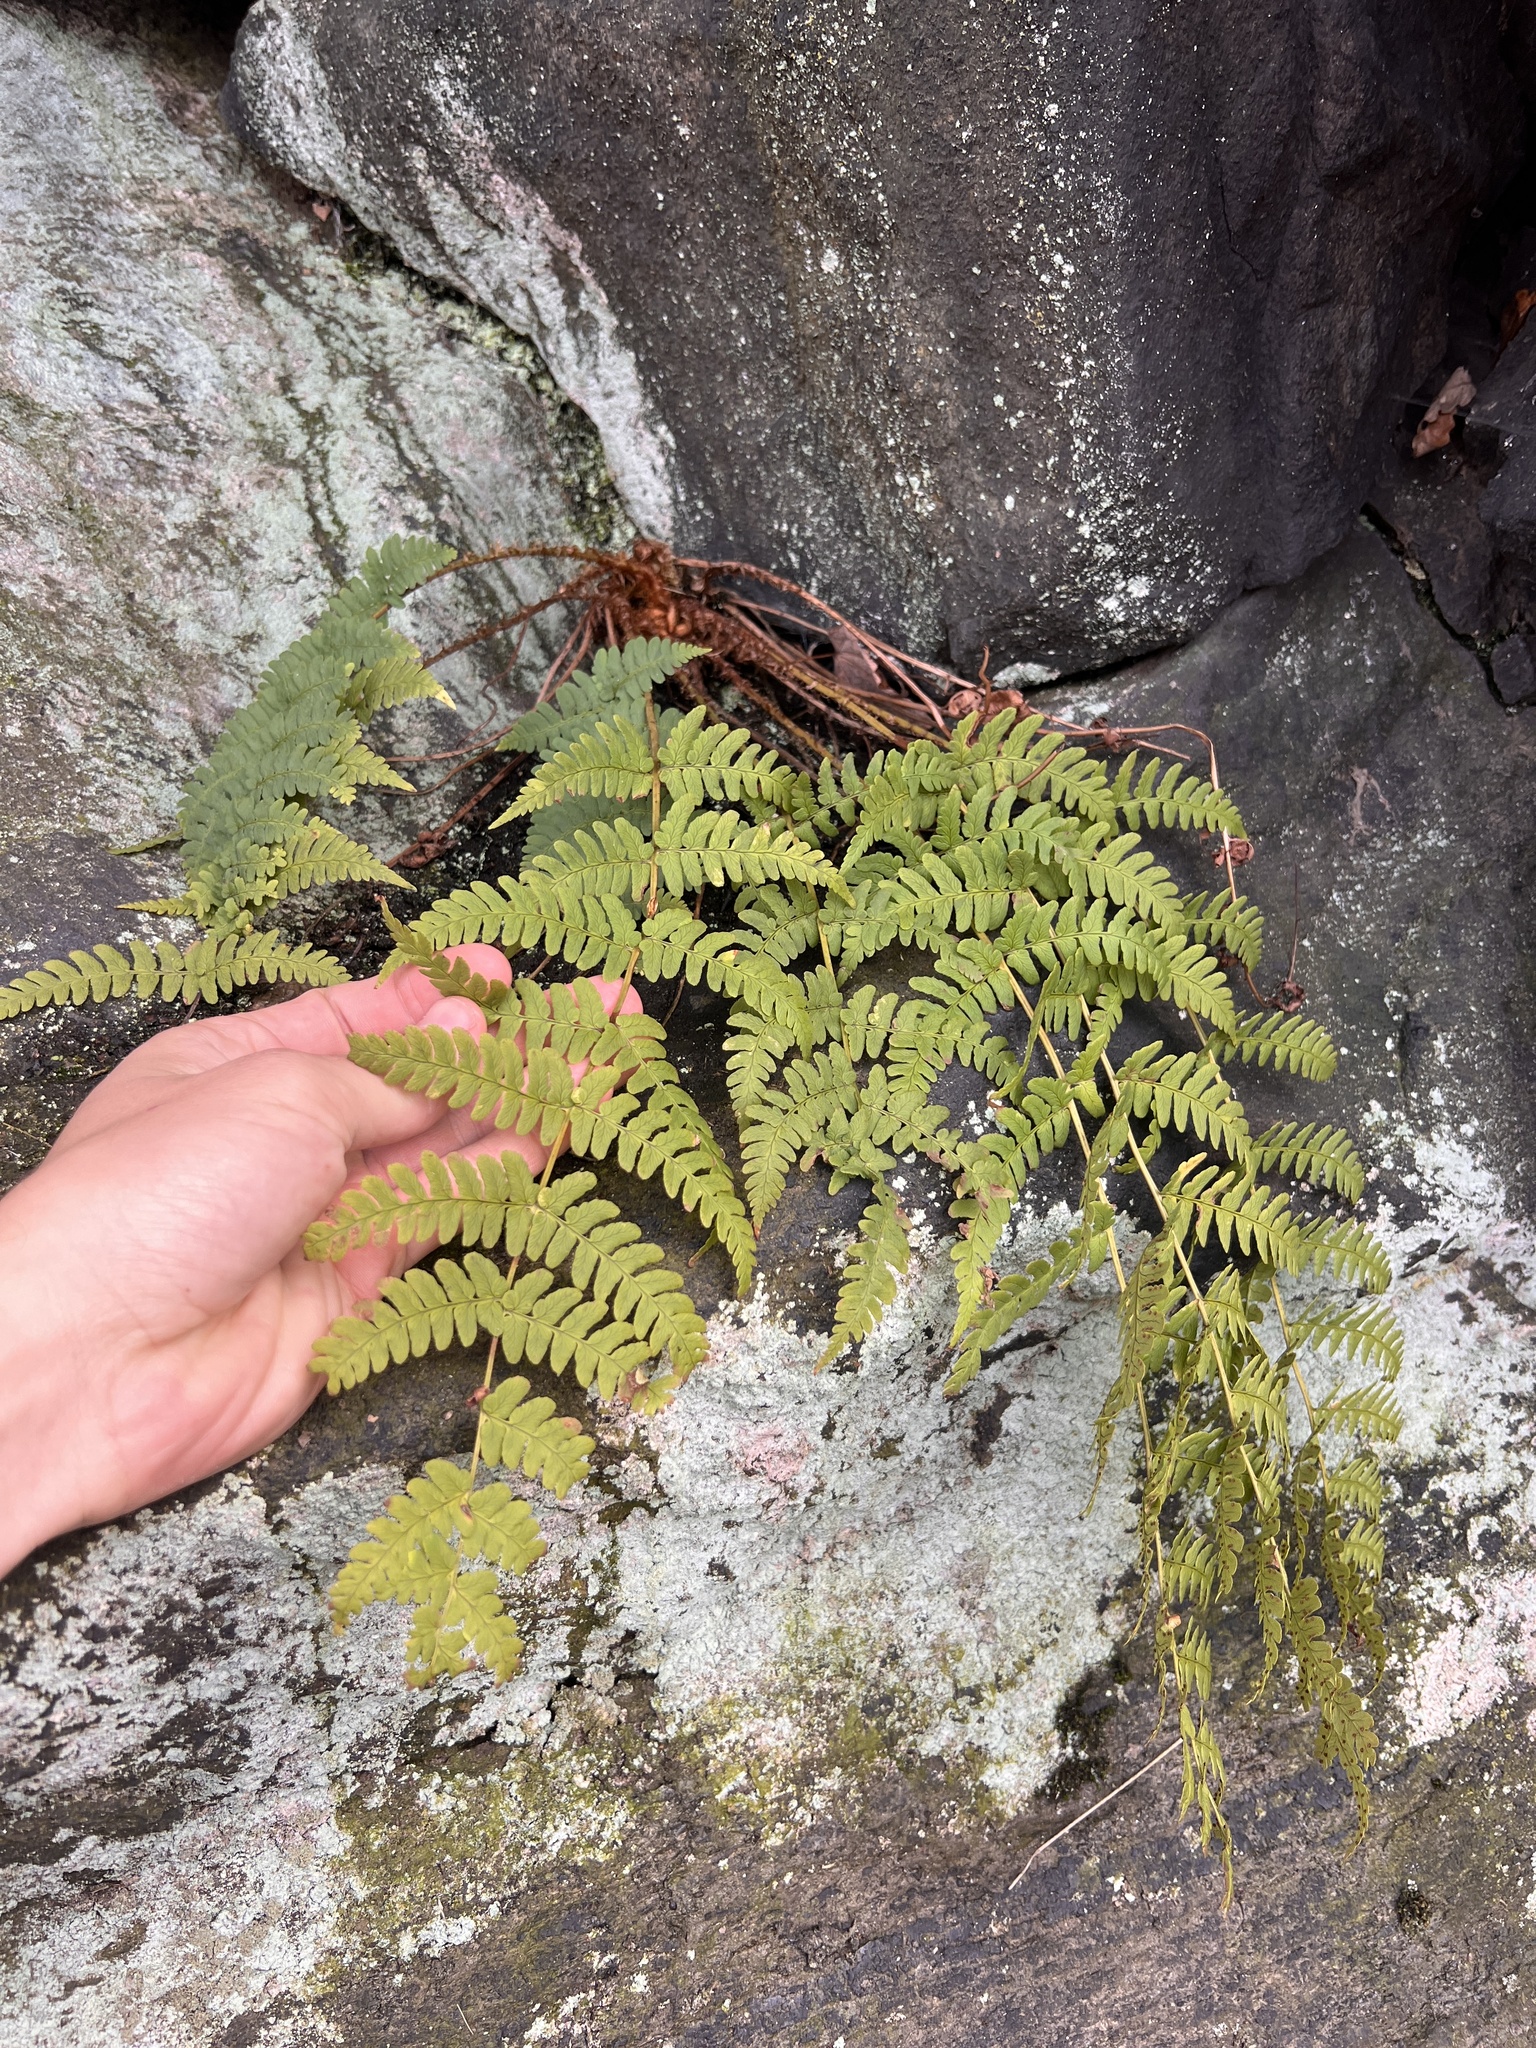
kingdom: Plantae
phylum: Tracheophyta
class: Polypodiopsida
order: Polypodiales
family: Dryopteridaceae
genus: Dryopteris
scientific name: Dryopteris marginalis
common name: Marginal wood fern
